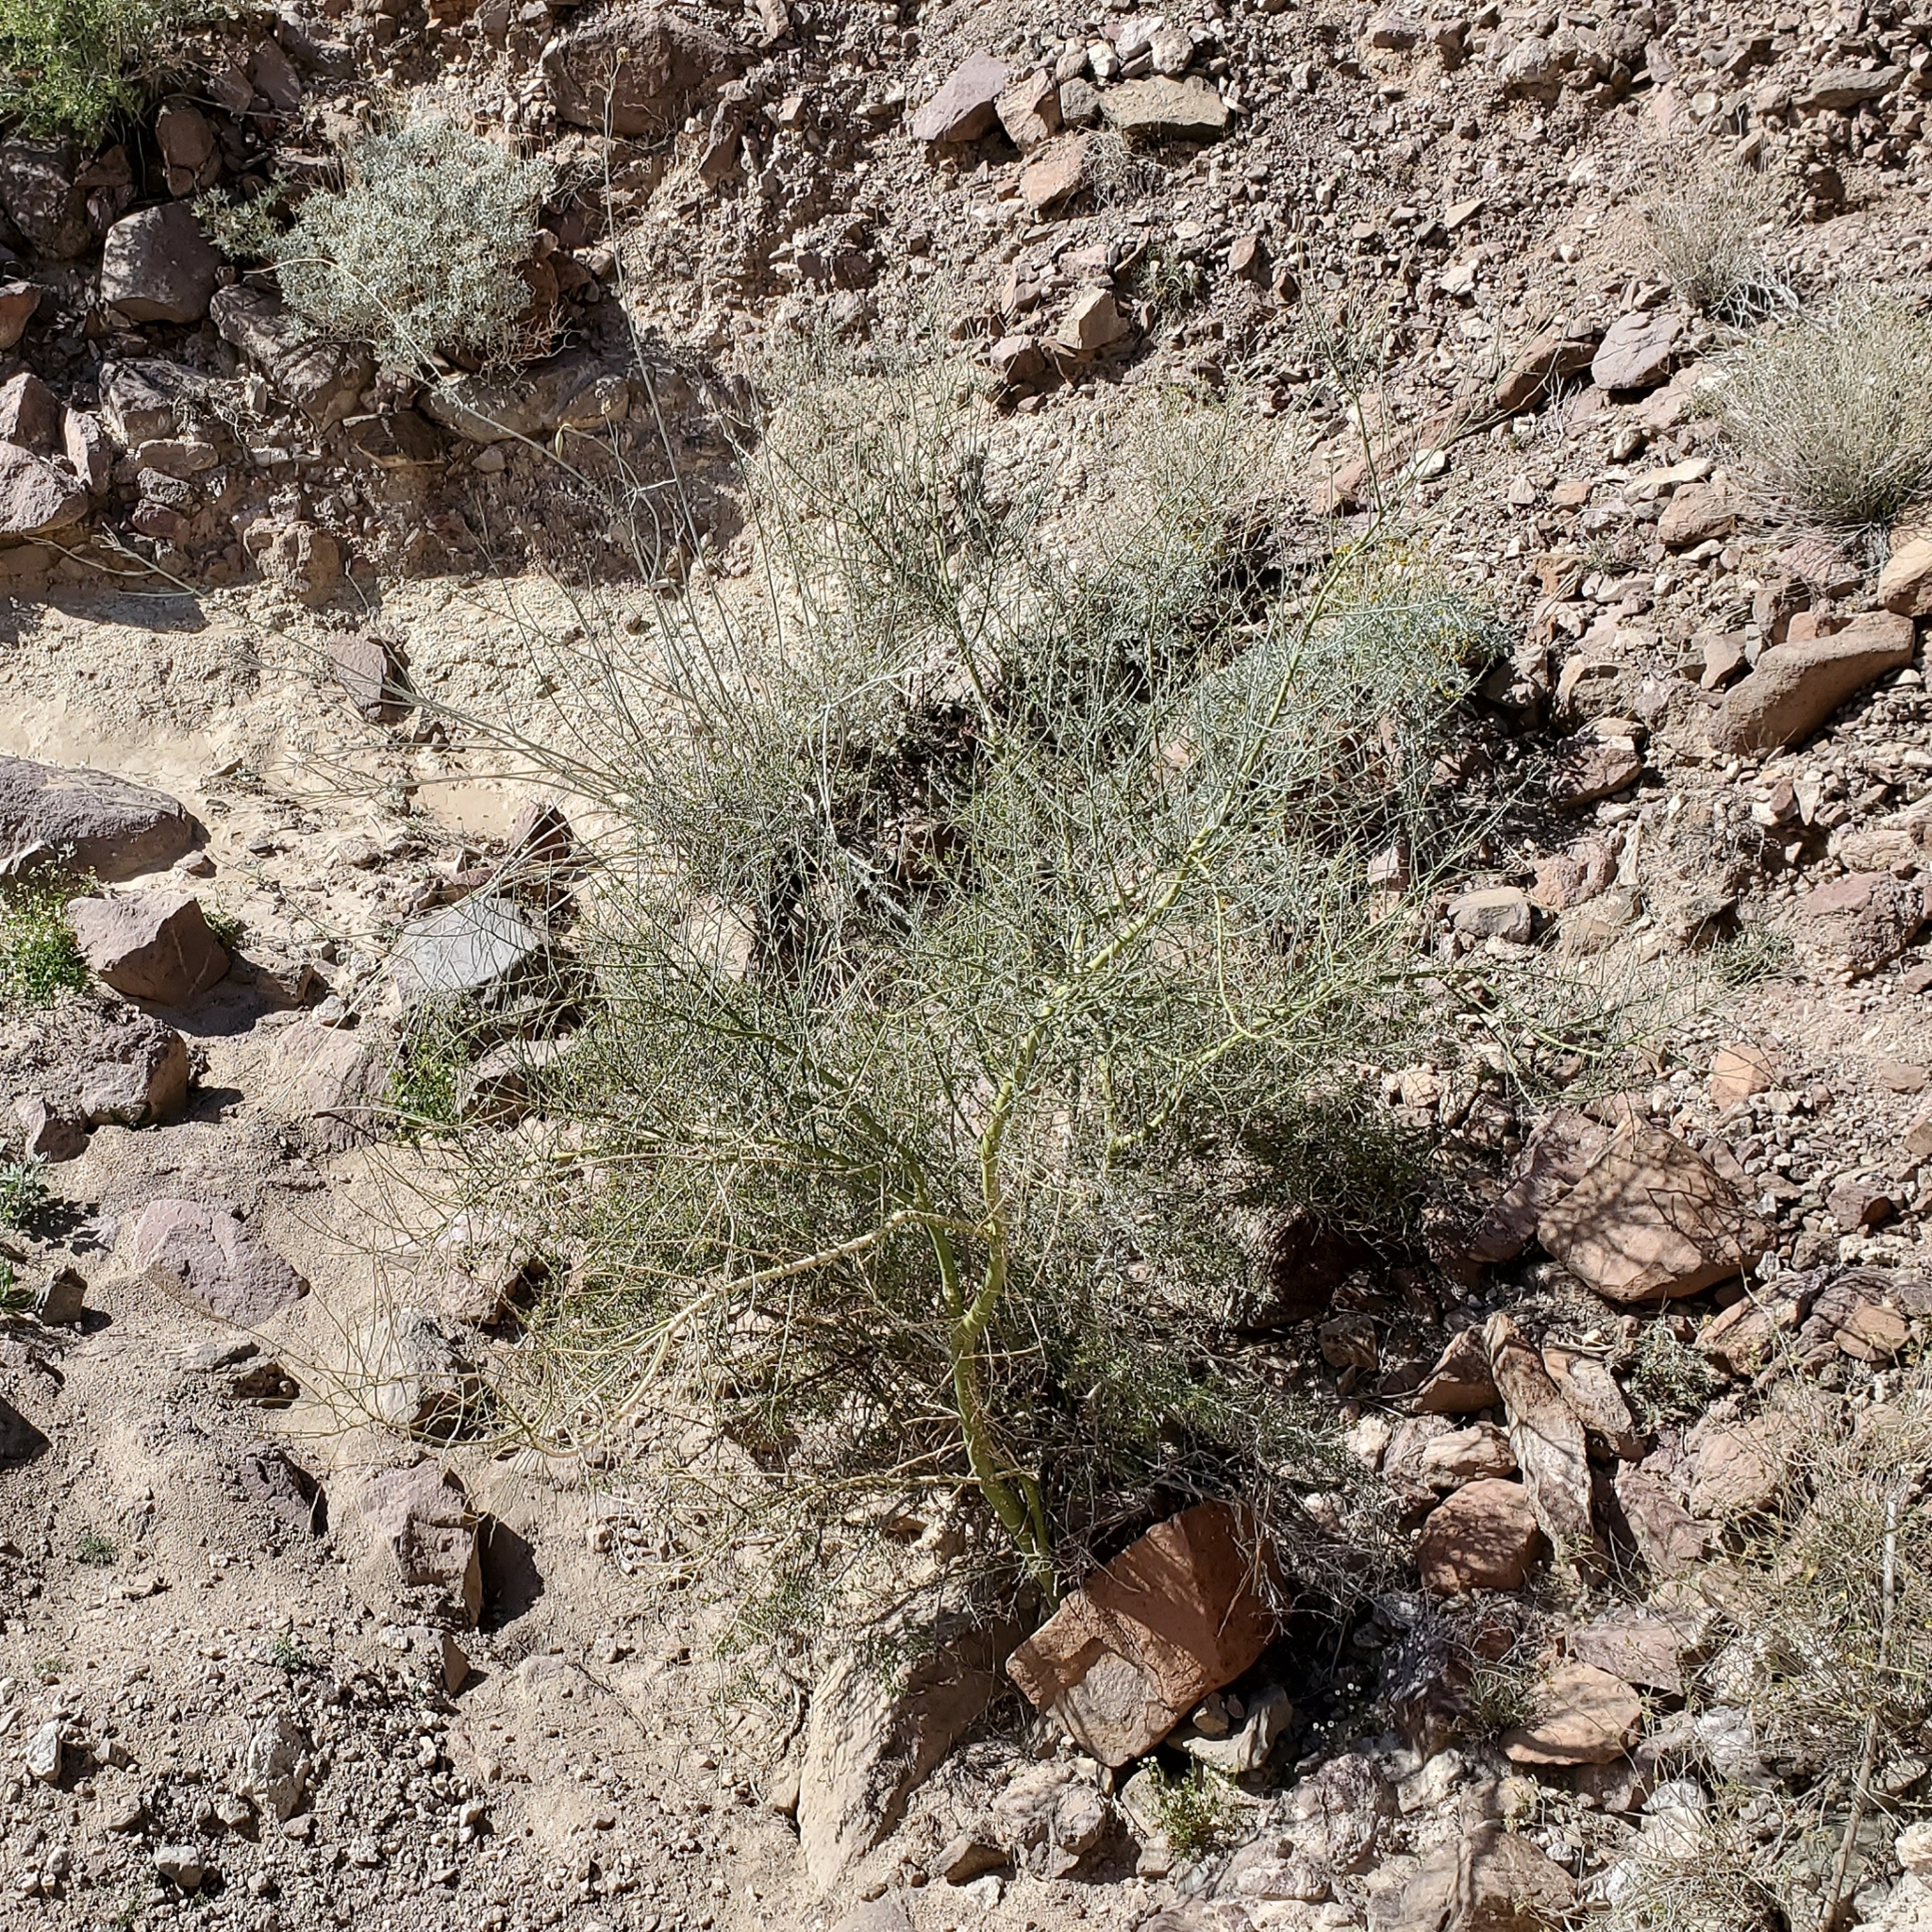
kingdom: Plantae
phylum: Tracheophyta
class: Magnoliopsida
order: Fabales
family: Fabaceae
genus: Parkinsonia
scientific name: Parkinsonia florida
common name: Blue paloverde
